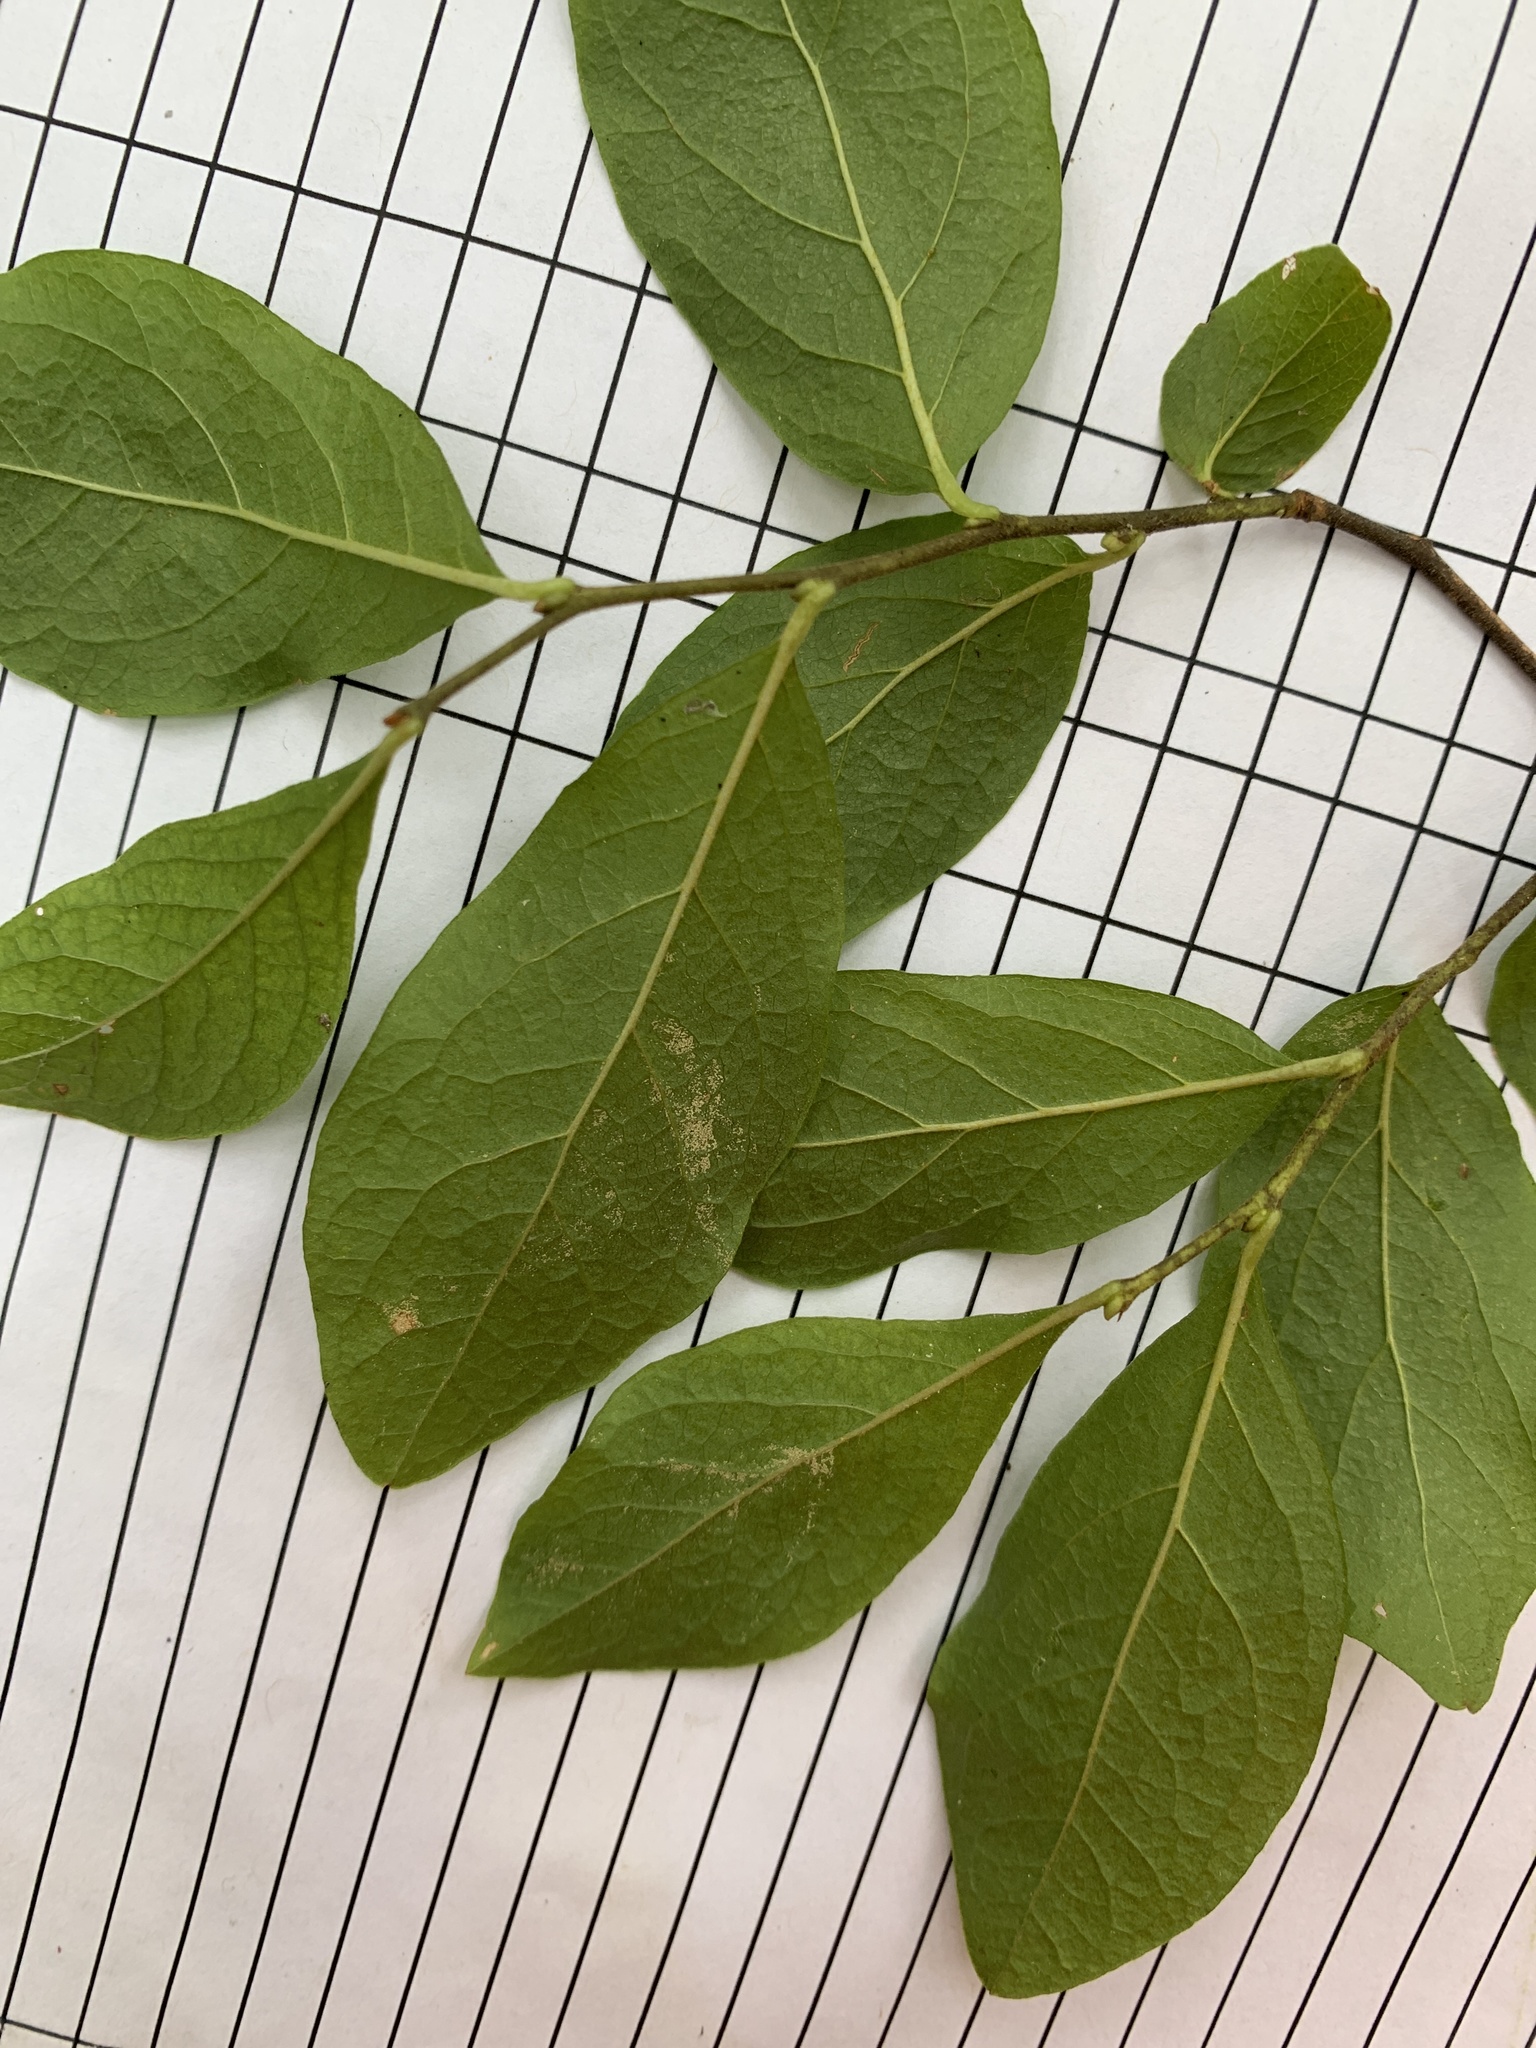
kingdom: Plantae
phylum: Tracheophyta
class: Magnoliopsida
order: Ericales
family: Ericaceae
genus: Gaylussacia
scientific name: Gaylussacia baccata
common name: Black huckleberry
